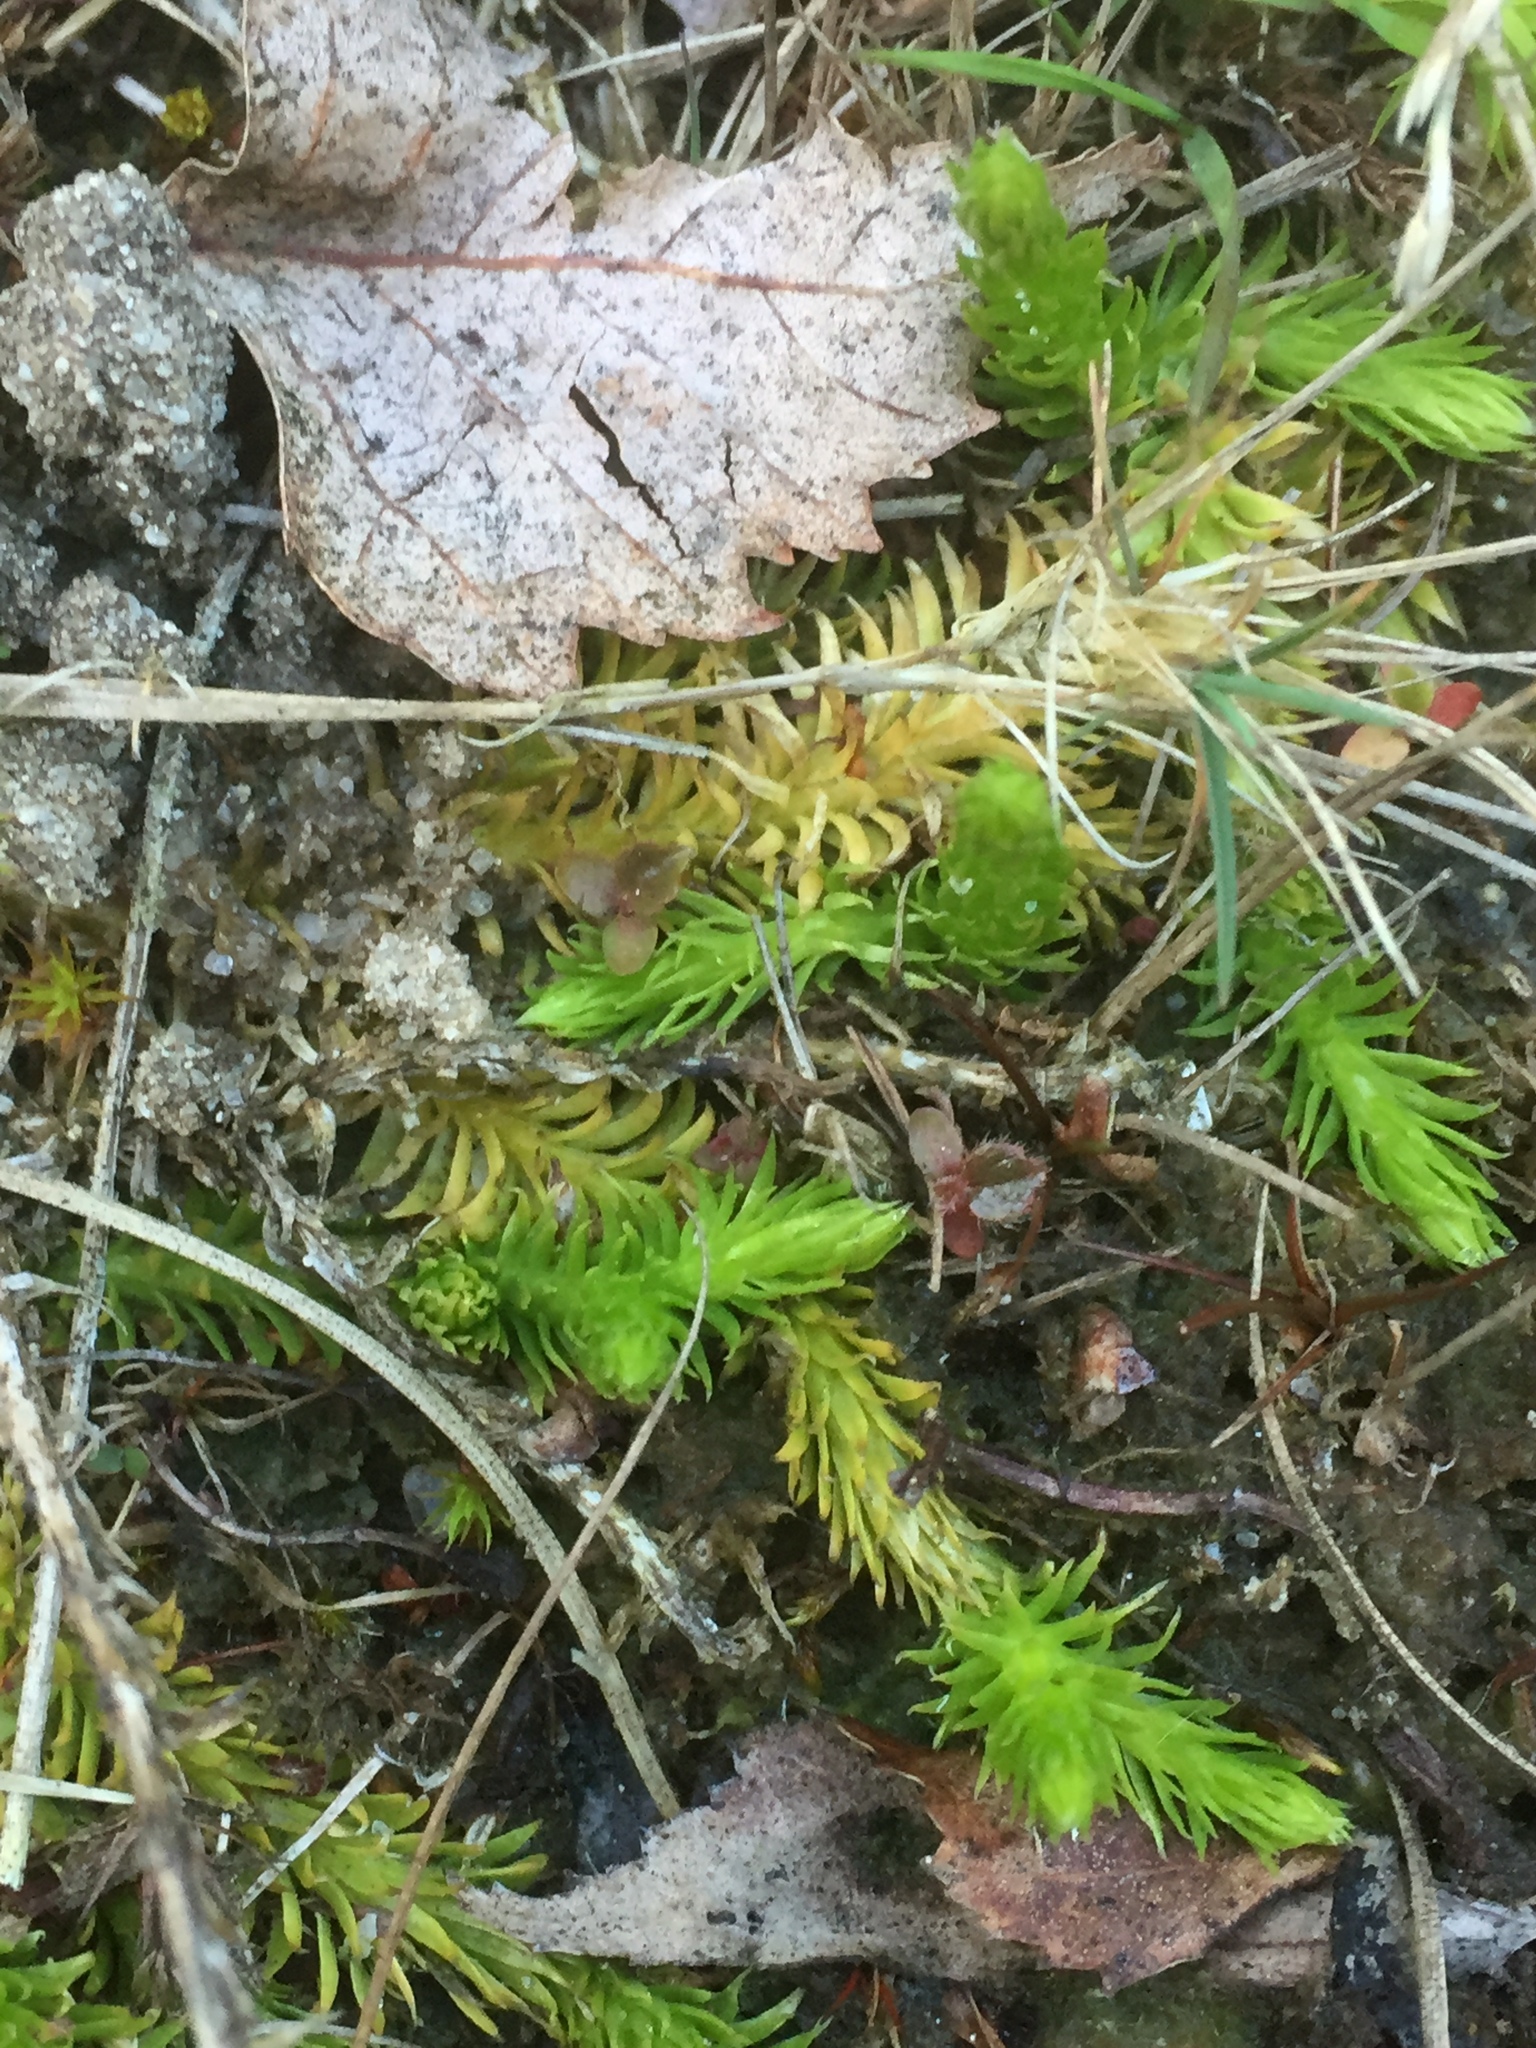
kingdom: Plantae
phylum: Tracheophyta
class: Lycopodiopsida
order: Lycopodiales
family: Lycopodiaceae
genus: Lycopodiella
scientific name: Lycopodiella inundata
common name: Marsh clubmoss
